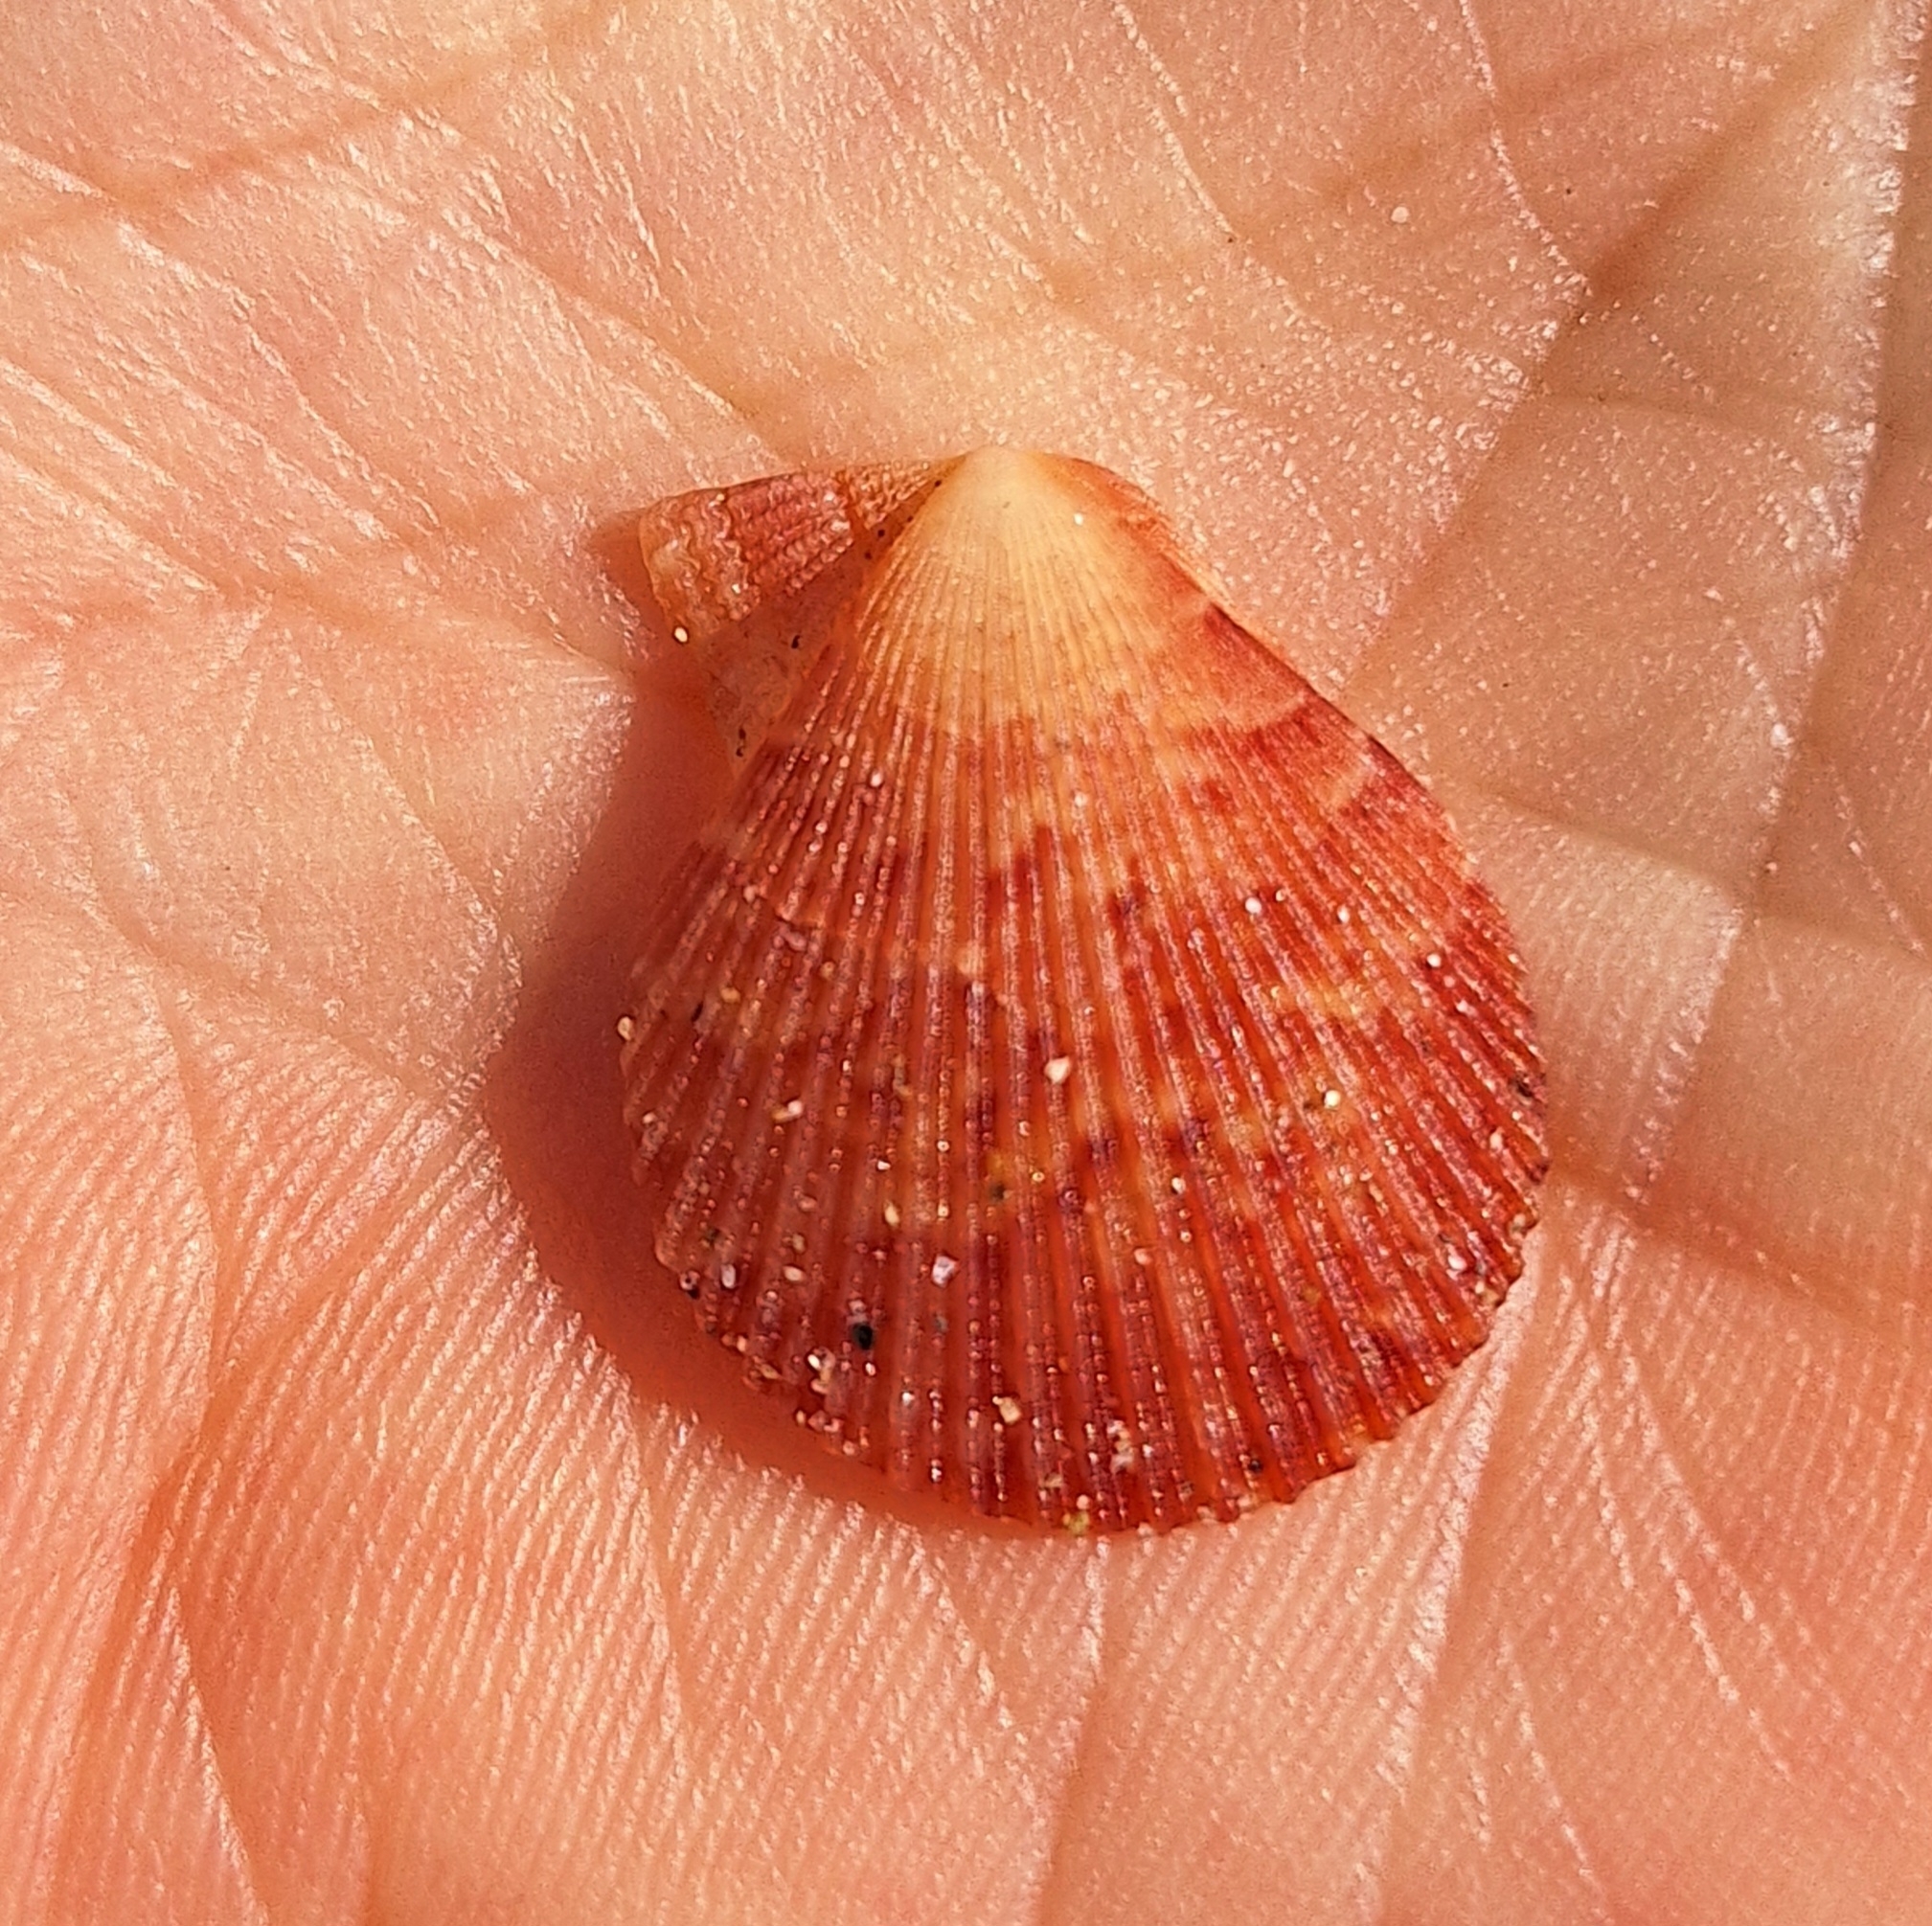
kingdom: Animalia
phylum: Mollusca
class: Bivalvia
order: Pectinida
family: Pectinidae
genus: Talochlamys
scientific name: Talochlamys multistriata
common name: Tinted scallop
